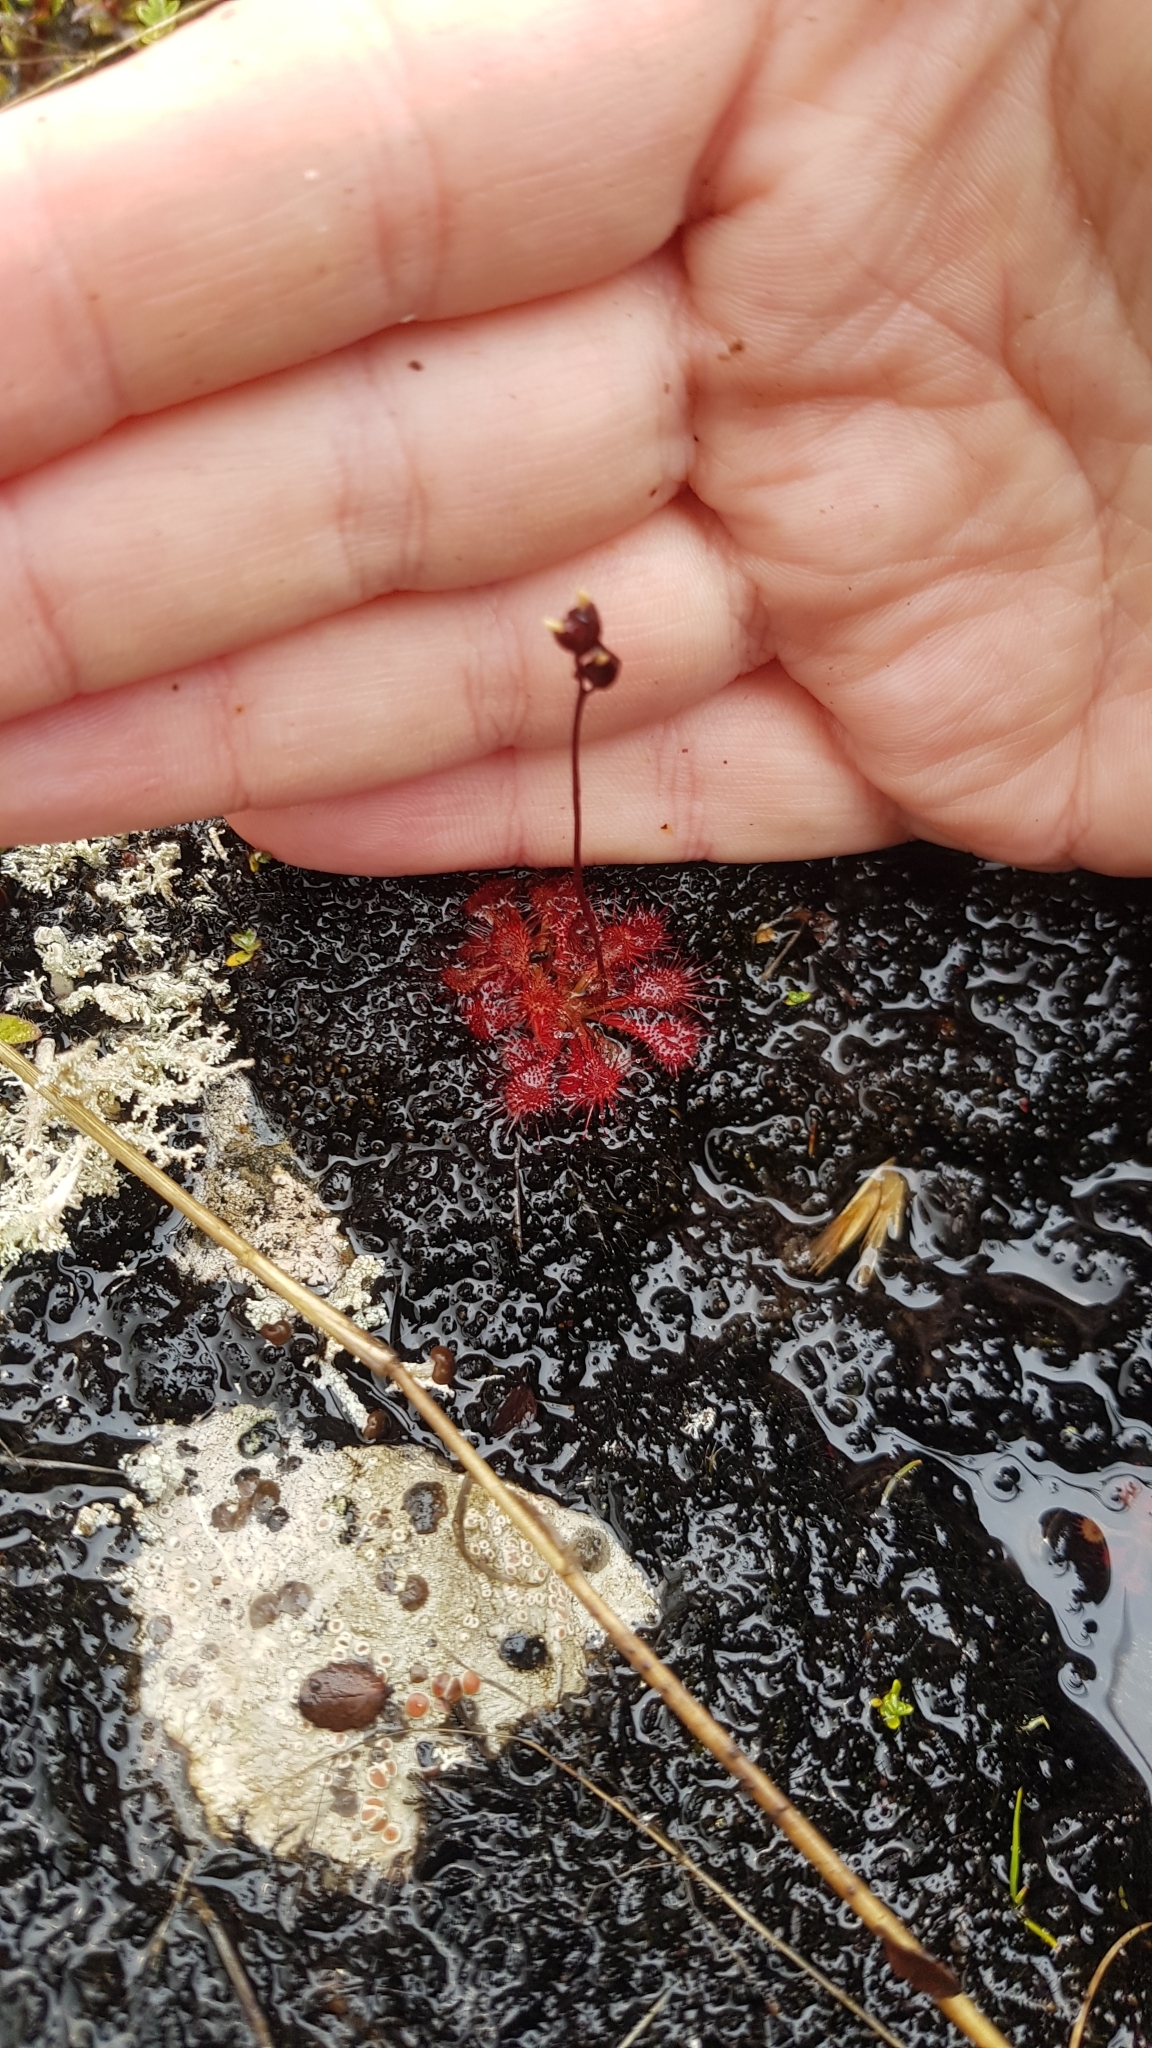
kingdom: Plantae
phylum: Tracheophyta
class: Magnoliopsida
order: Caryophyllales
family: Droseraceae
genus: Drosera
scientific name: Drosera spatulata
